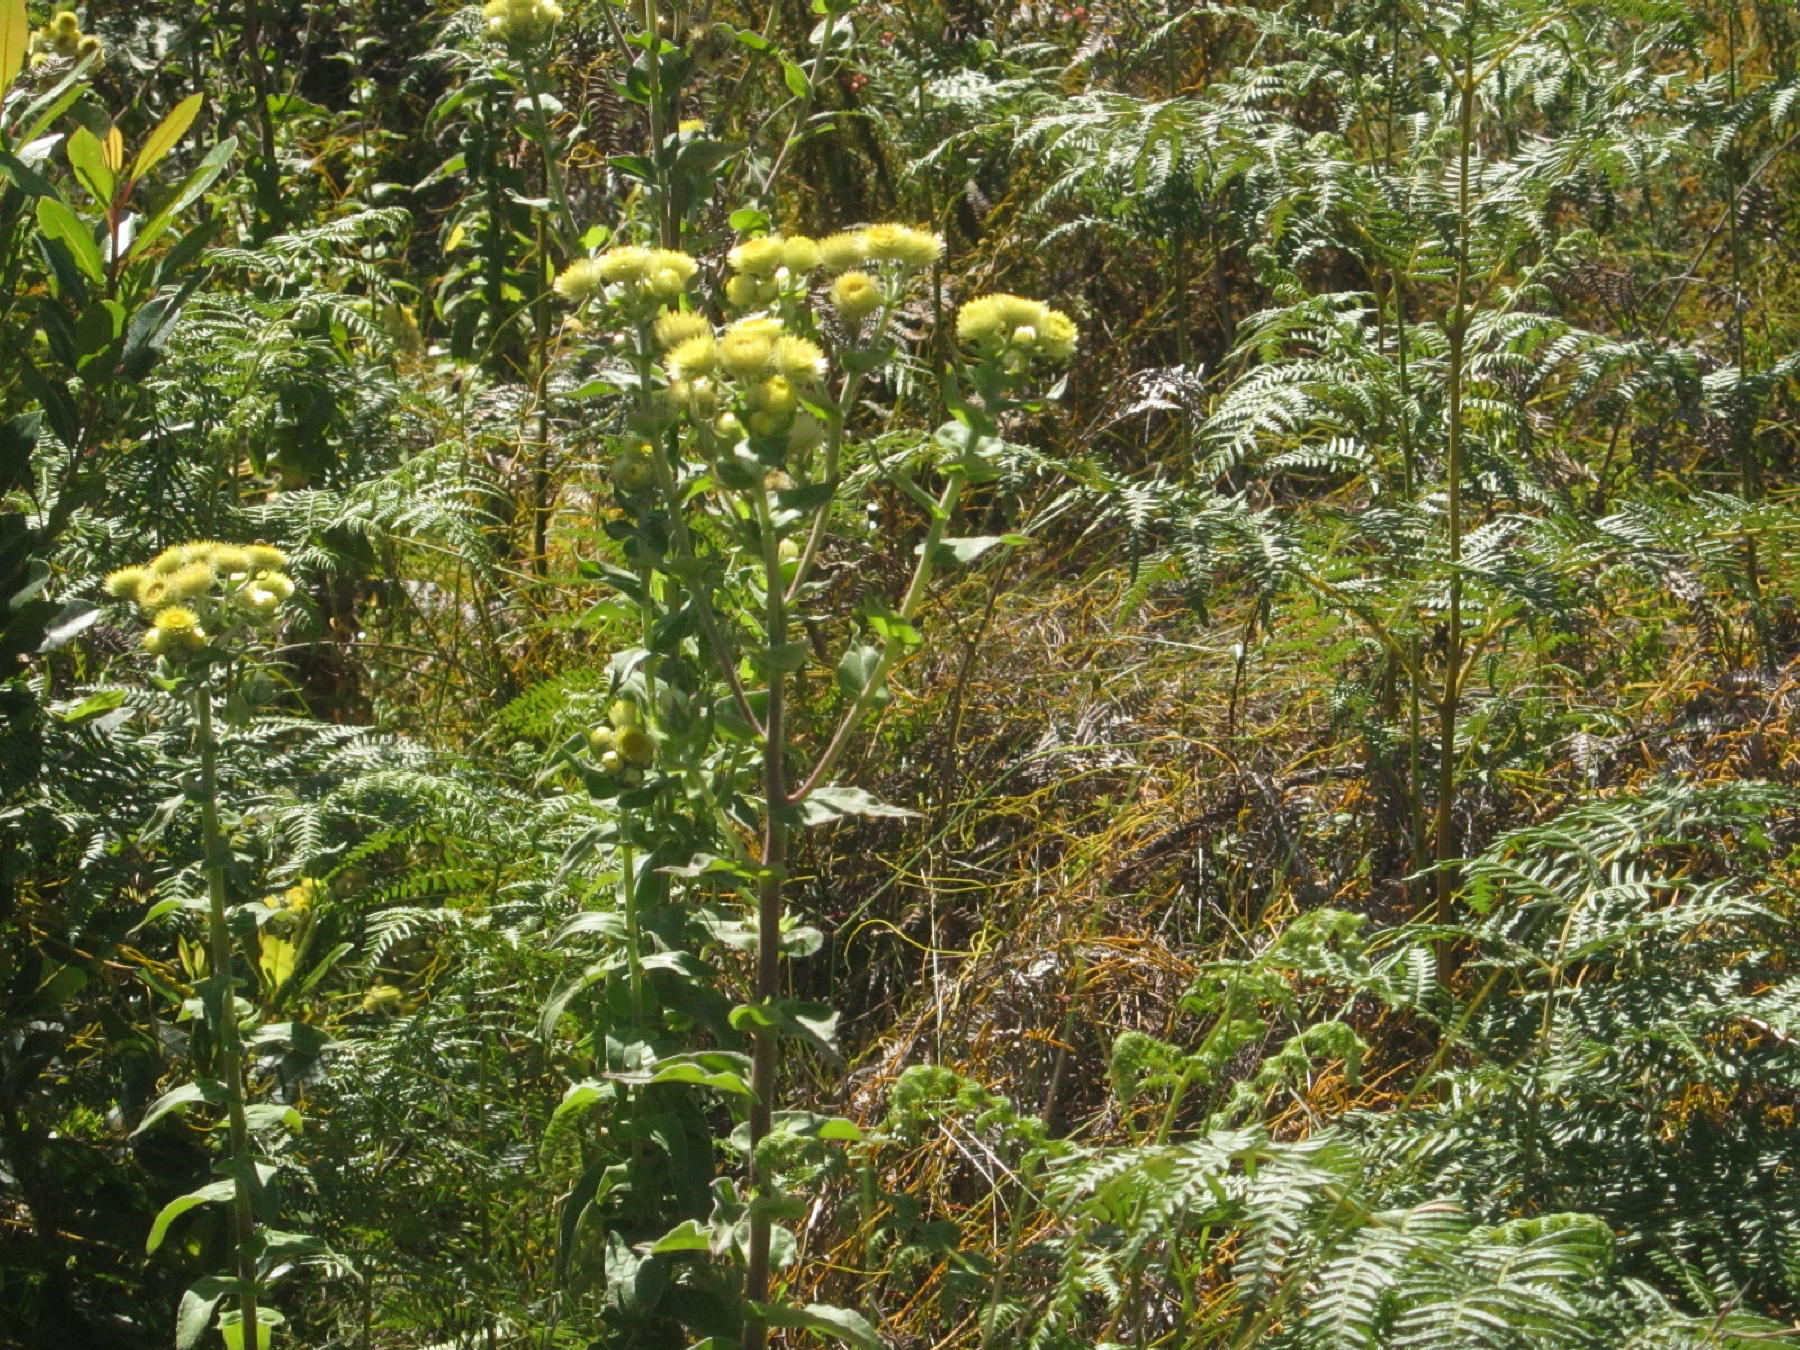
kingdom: Plantae
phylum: Tracheophyta
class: Magnoliopsida
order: Asterales
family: Asteraceae
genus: Helichrysum
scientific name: Helichrysum foetidum
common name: Stinking everlasting
